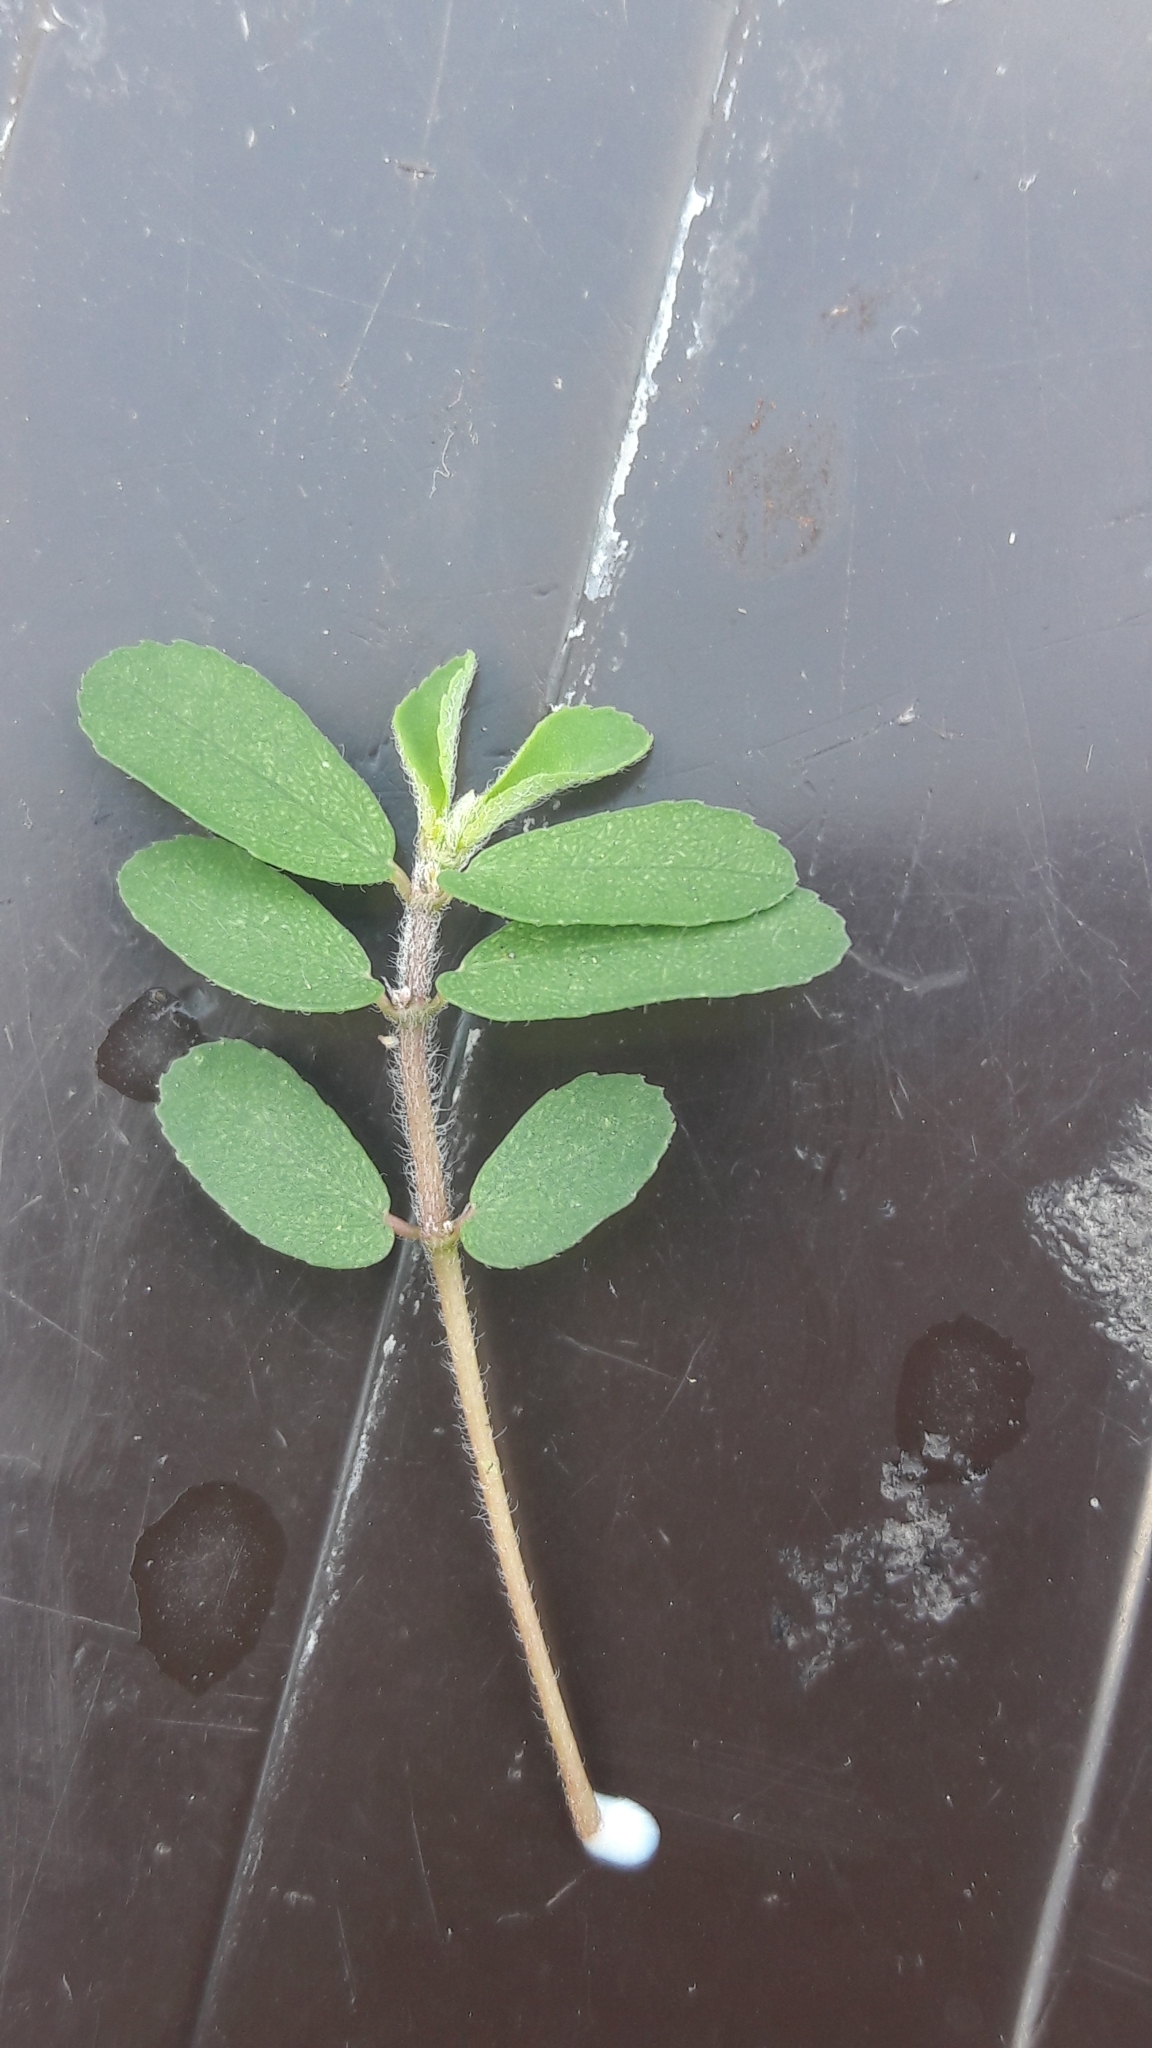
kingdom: Plantae
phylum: Tracheophyta
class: Magnoliopsida
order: Malpighiales
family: Euphorbiaceae
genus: Euphorbia
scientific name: Euphorbia maculata
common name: Spotted spurge
